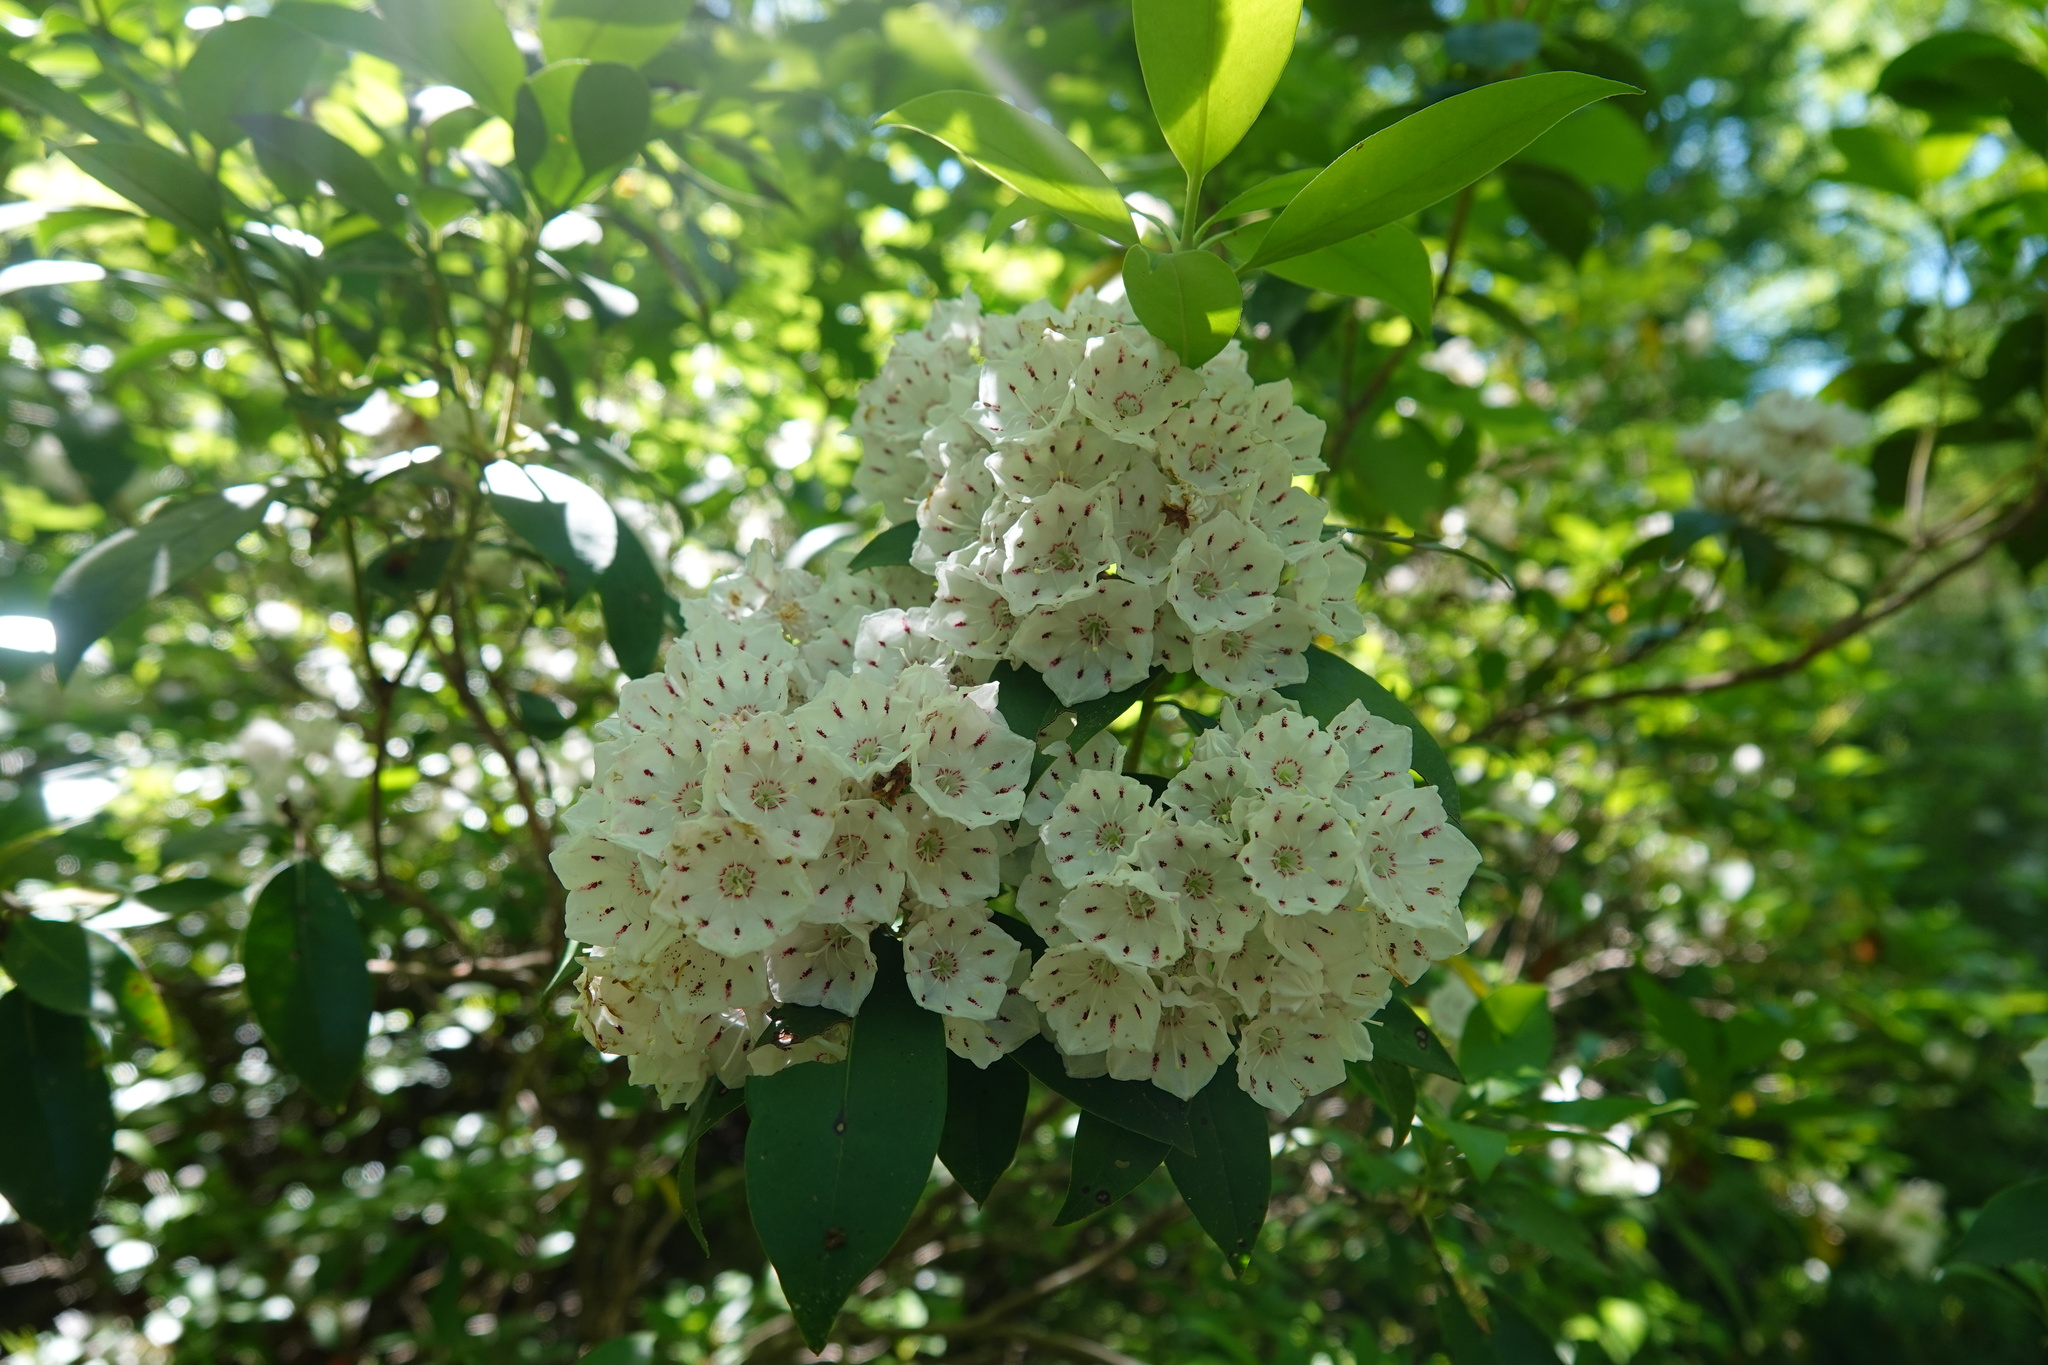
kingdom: Plantae
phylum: Tracheophyta
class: Magnoliopsida
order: Ericales
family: Ericaceae
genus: Kalmia
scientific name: Kalmia latifolia
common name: Mountain-laurel
